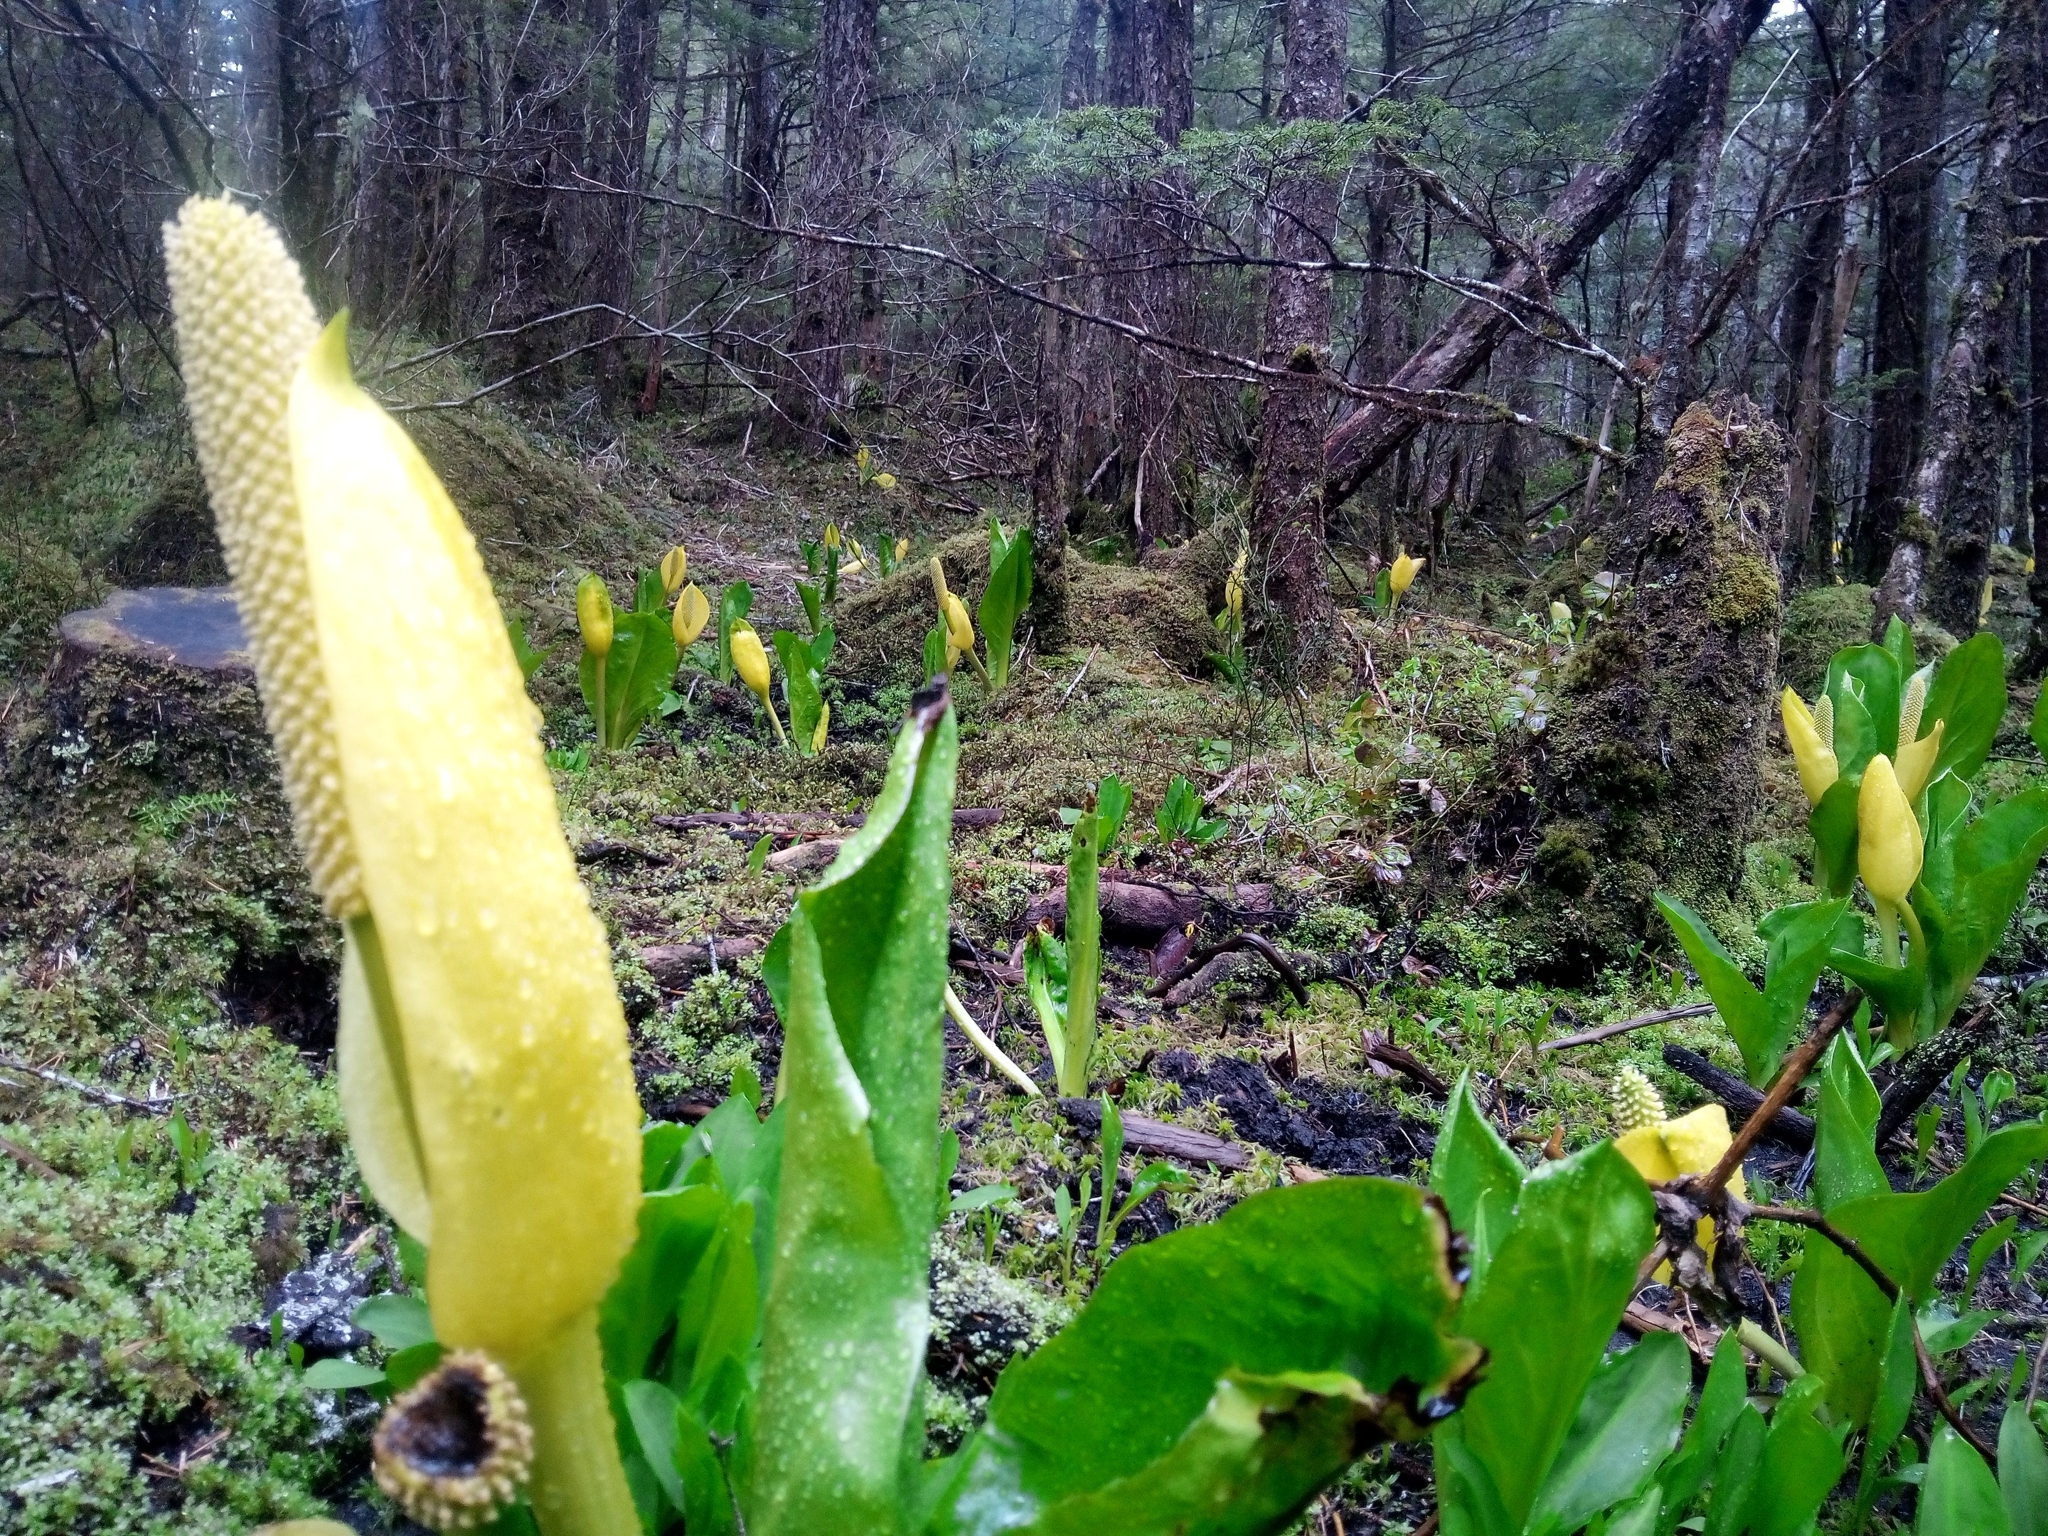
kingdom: Plantae
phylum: Tracheophyta
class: Liliopsida
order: Alismatales
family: Araceae
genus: Lysichiton
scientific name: Lysichiton americanus
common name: American skunk cabbage
